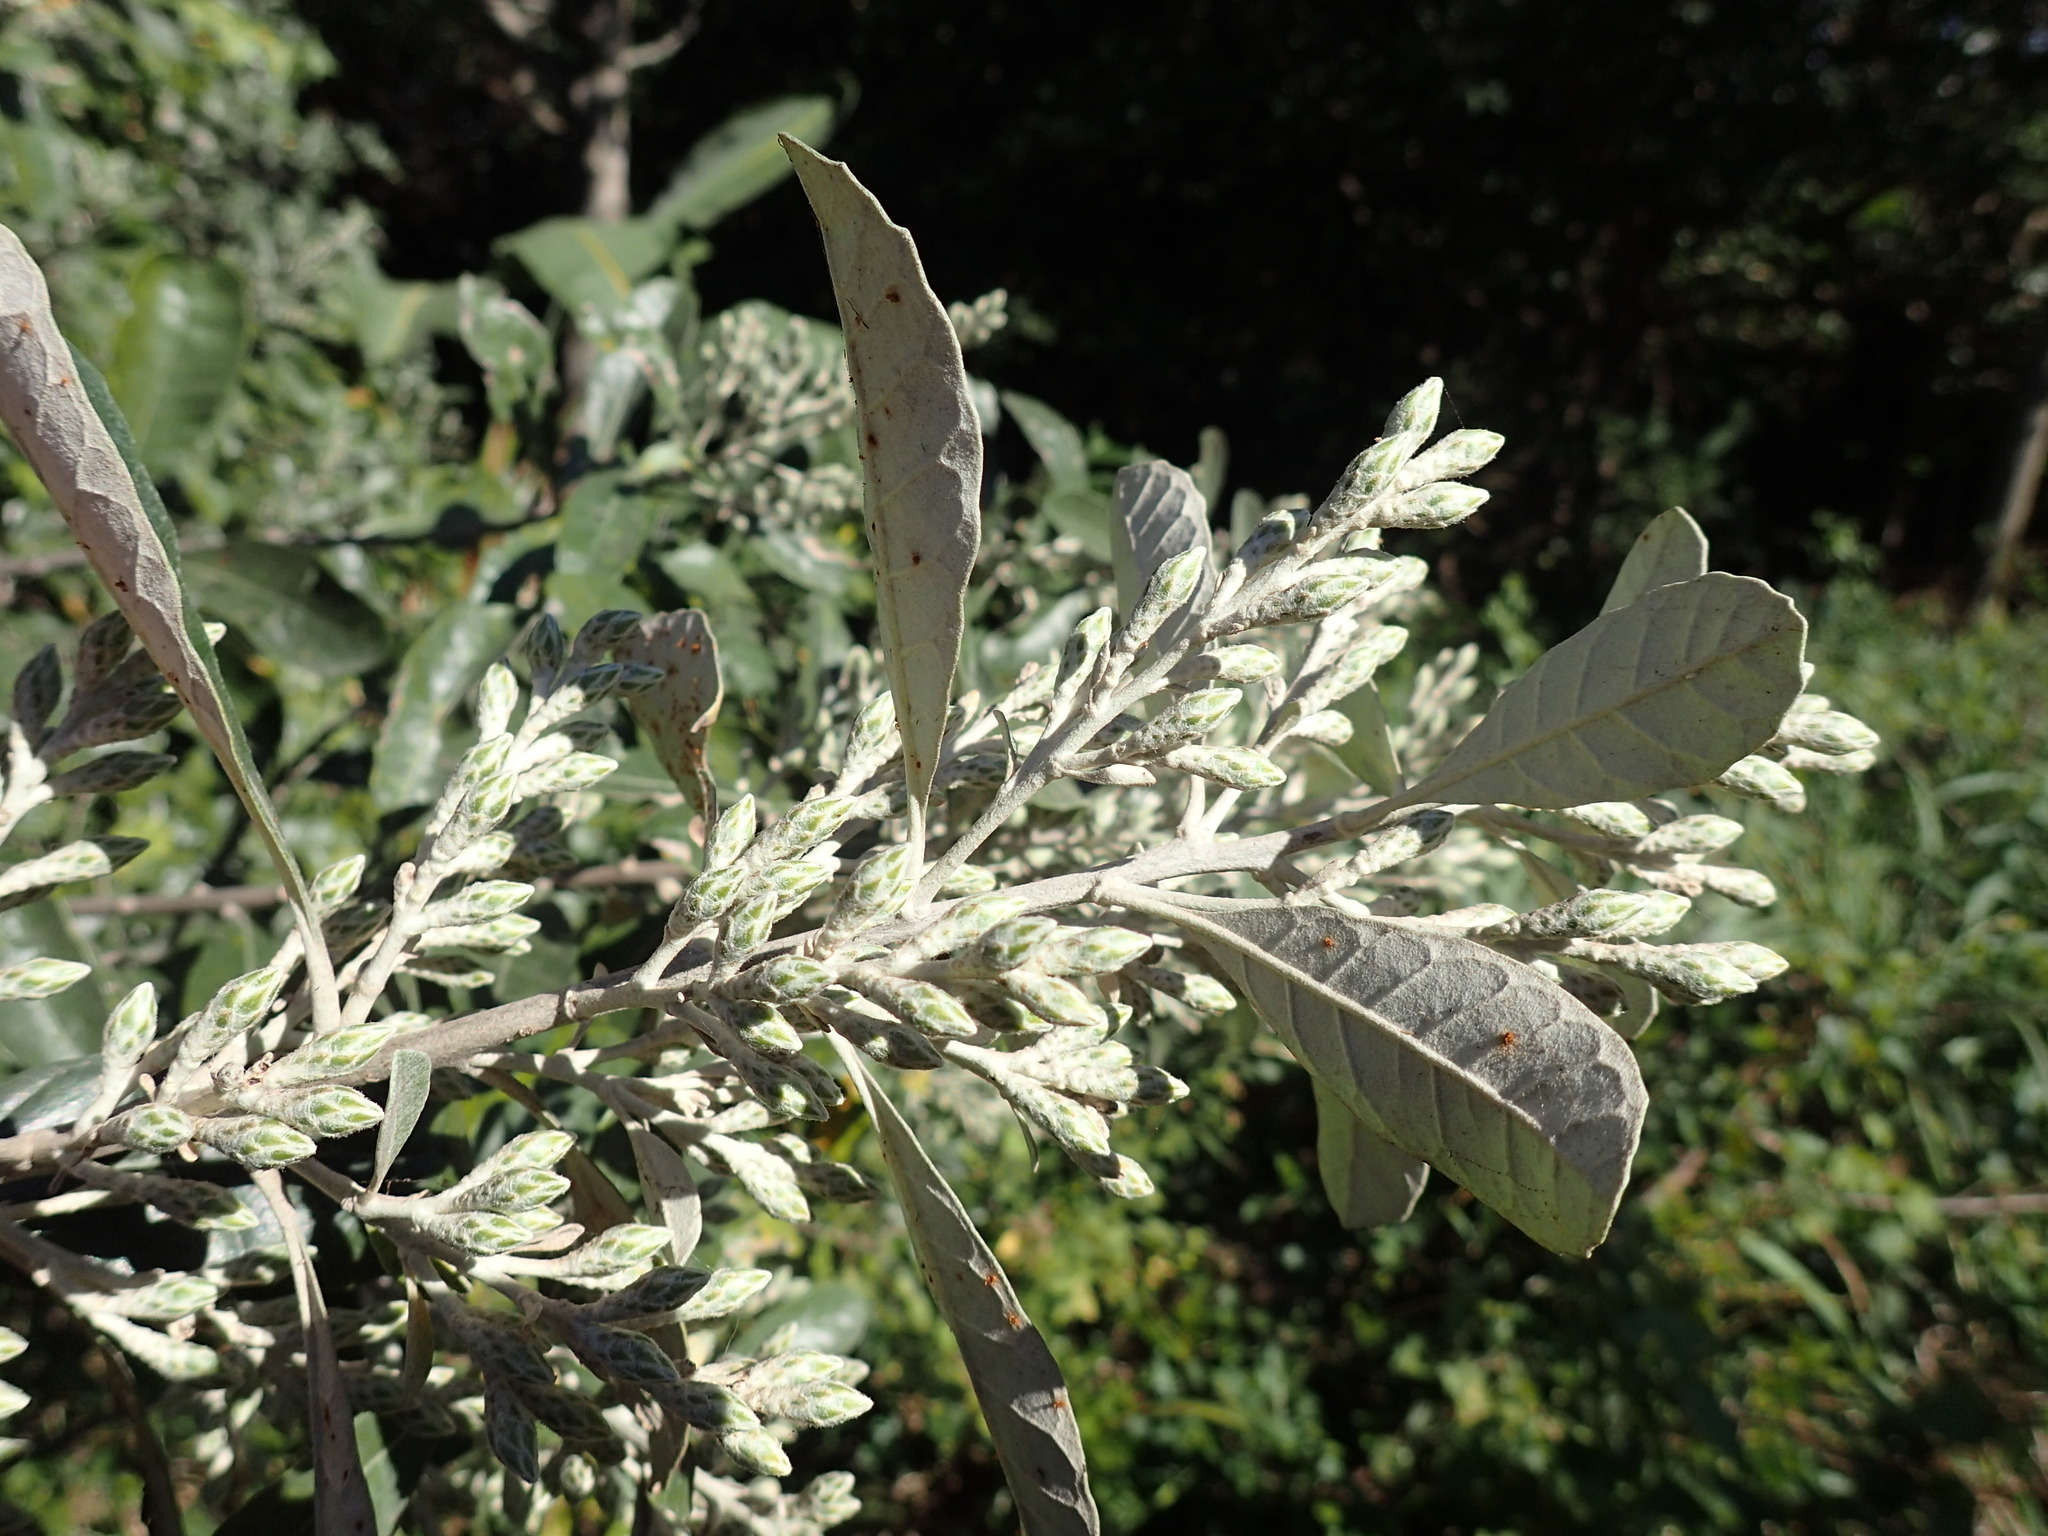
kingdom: Plantae
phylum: Tracheophyta
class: Magnoliopsida
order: Asterales
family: Asteraceae
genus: Brachylaena
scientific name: Brachylaena discolor
